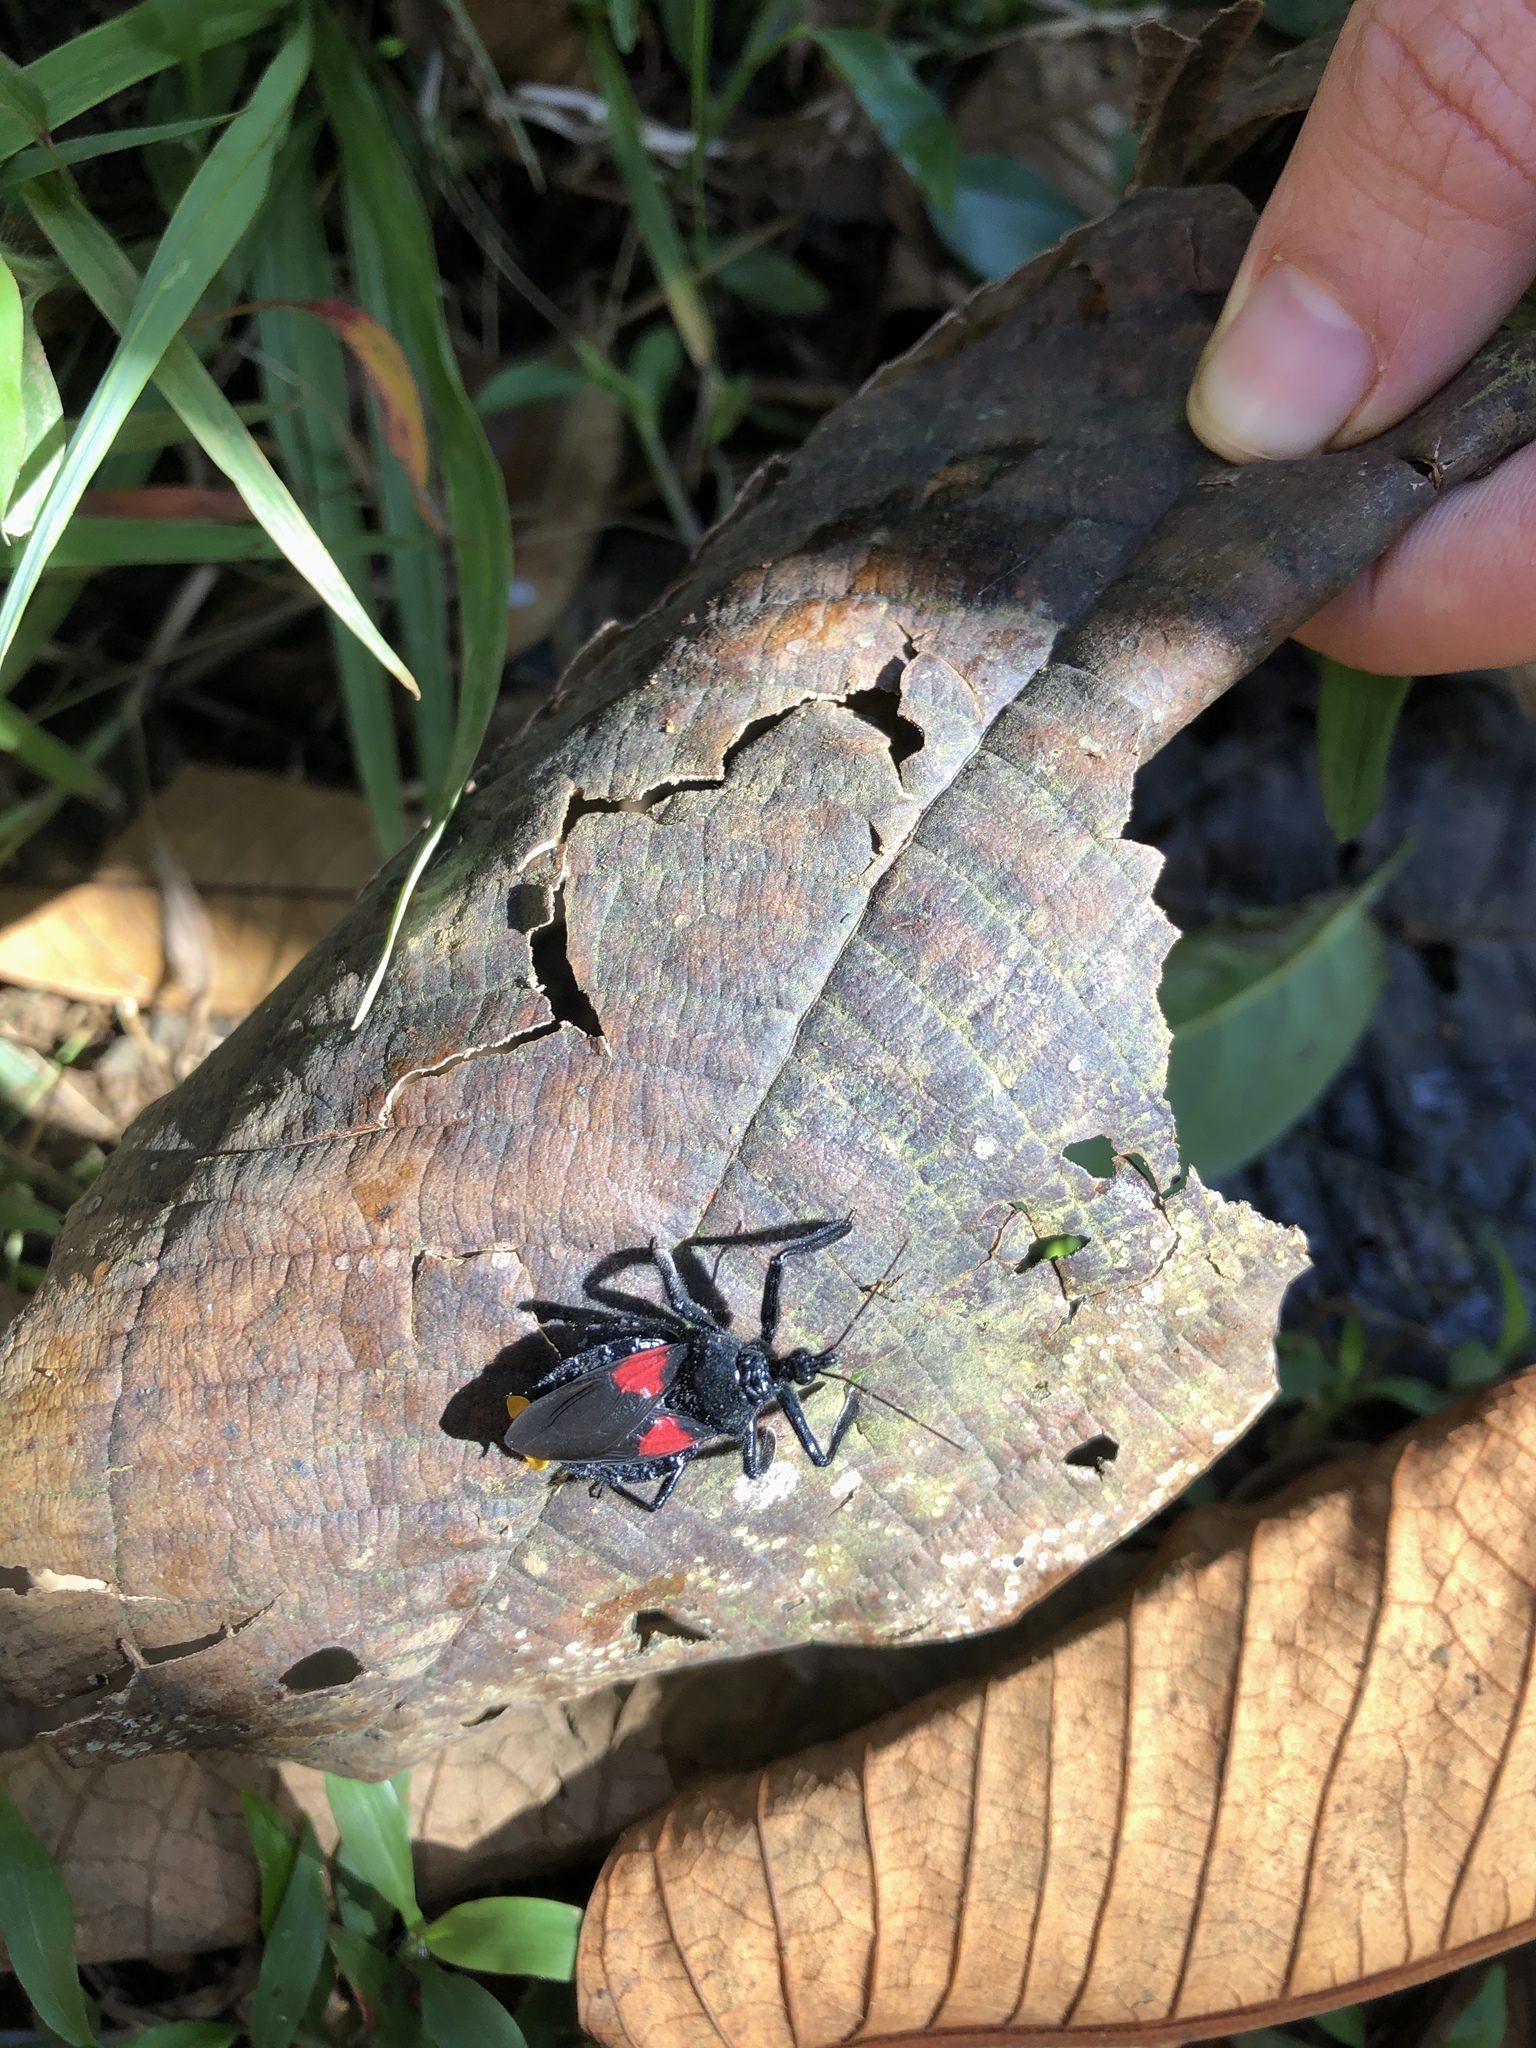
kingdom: Animalia
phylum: Arthropoda
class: Insecta
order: Hemiptera
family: Reduviidae
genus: Apiomerus
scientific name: Apiomerus hirtipes
